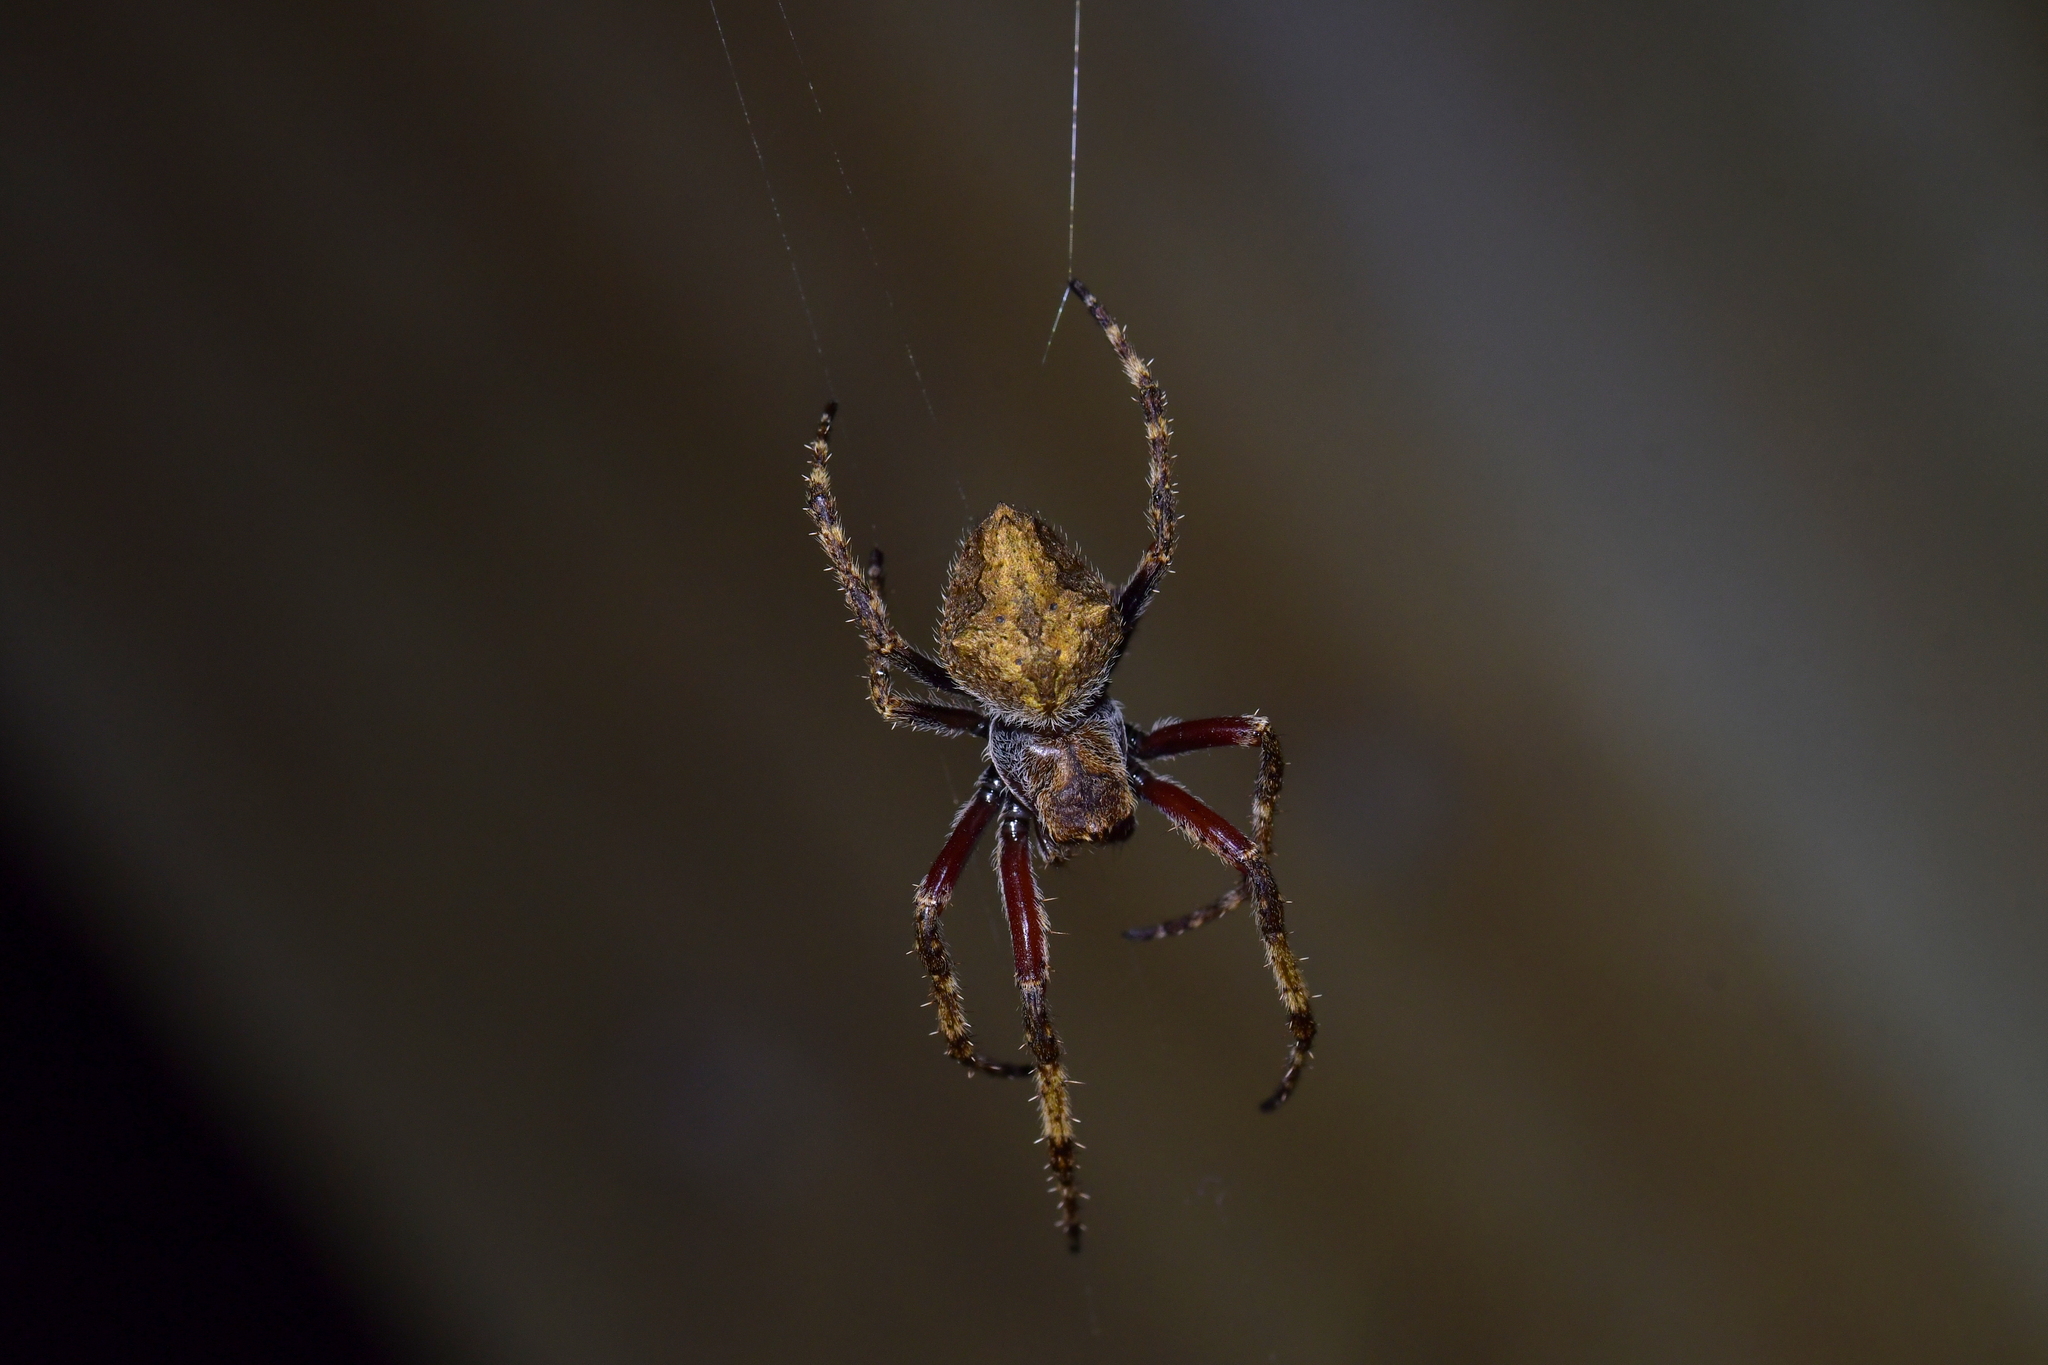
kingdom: Animalia
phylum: Arthropoda
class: Arachnida
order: Araneae
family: Araneidae
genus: Eriophora
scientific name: Eriophora pustulosa
